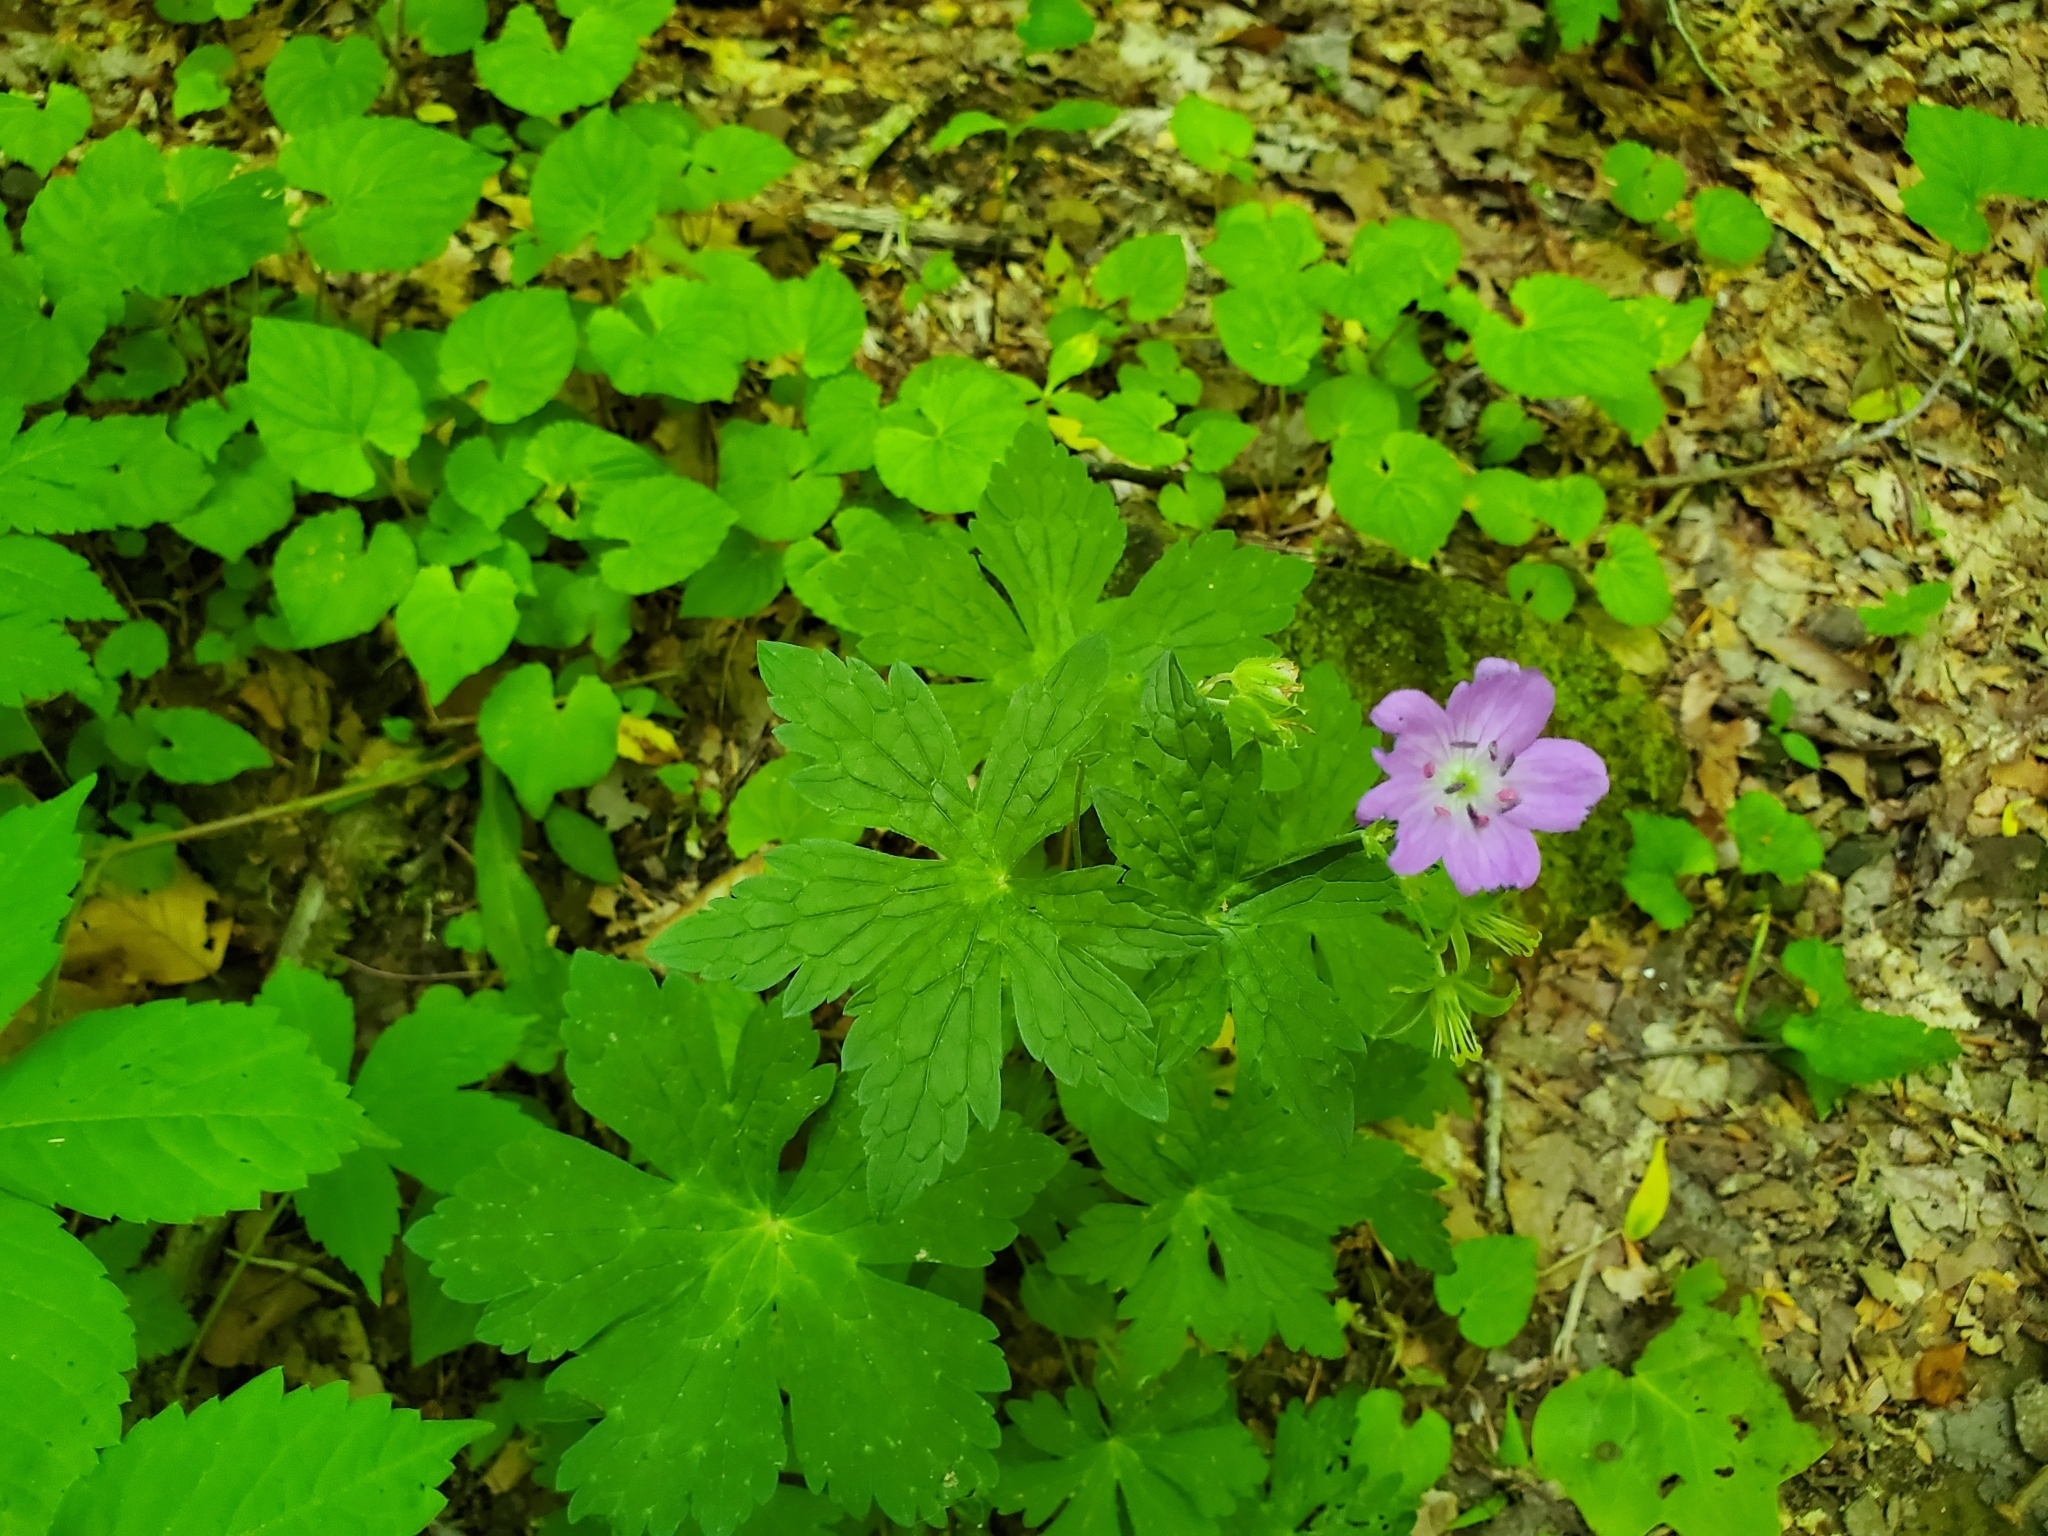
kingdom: Plantae
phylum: Tracheophyta
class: Magnoliopsida
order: Geraniales
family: Geraniaceae
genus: Geranium
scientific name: Geranium maculatum
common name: Spotted geranium
